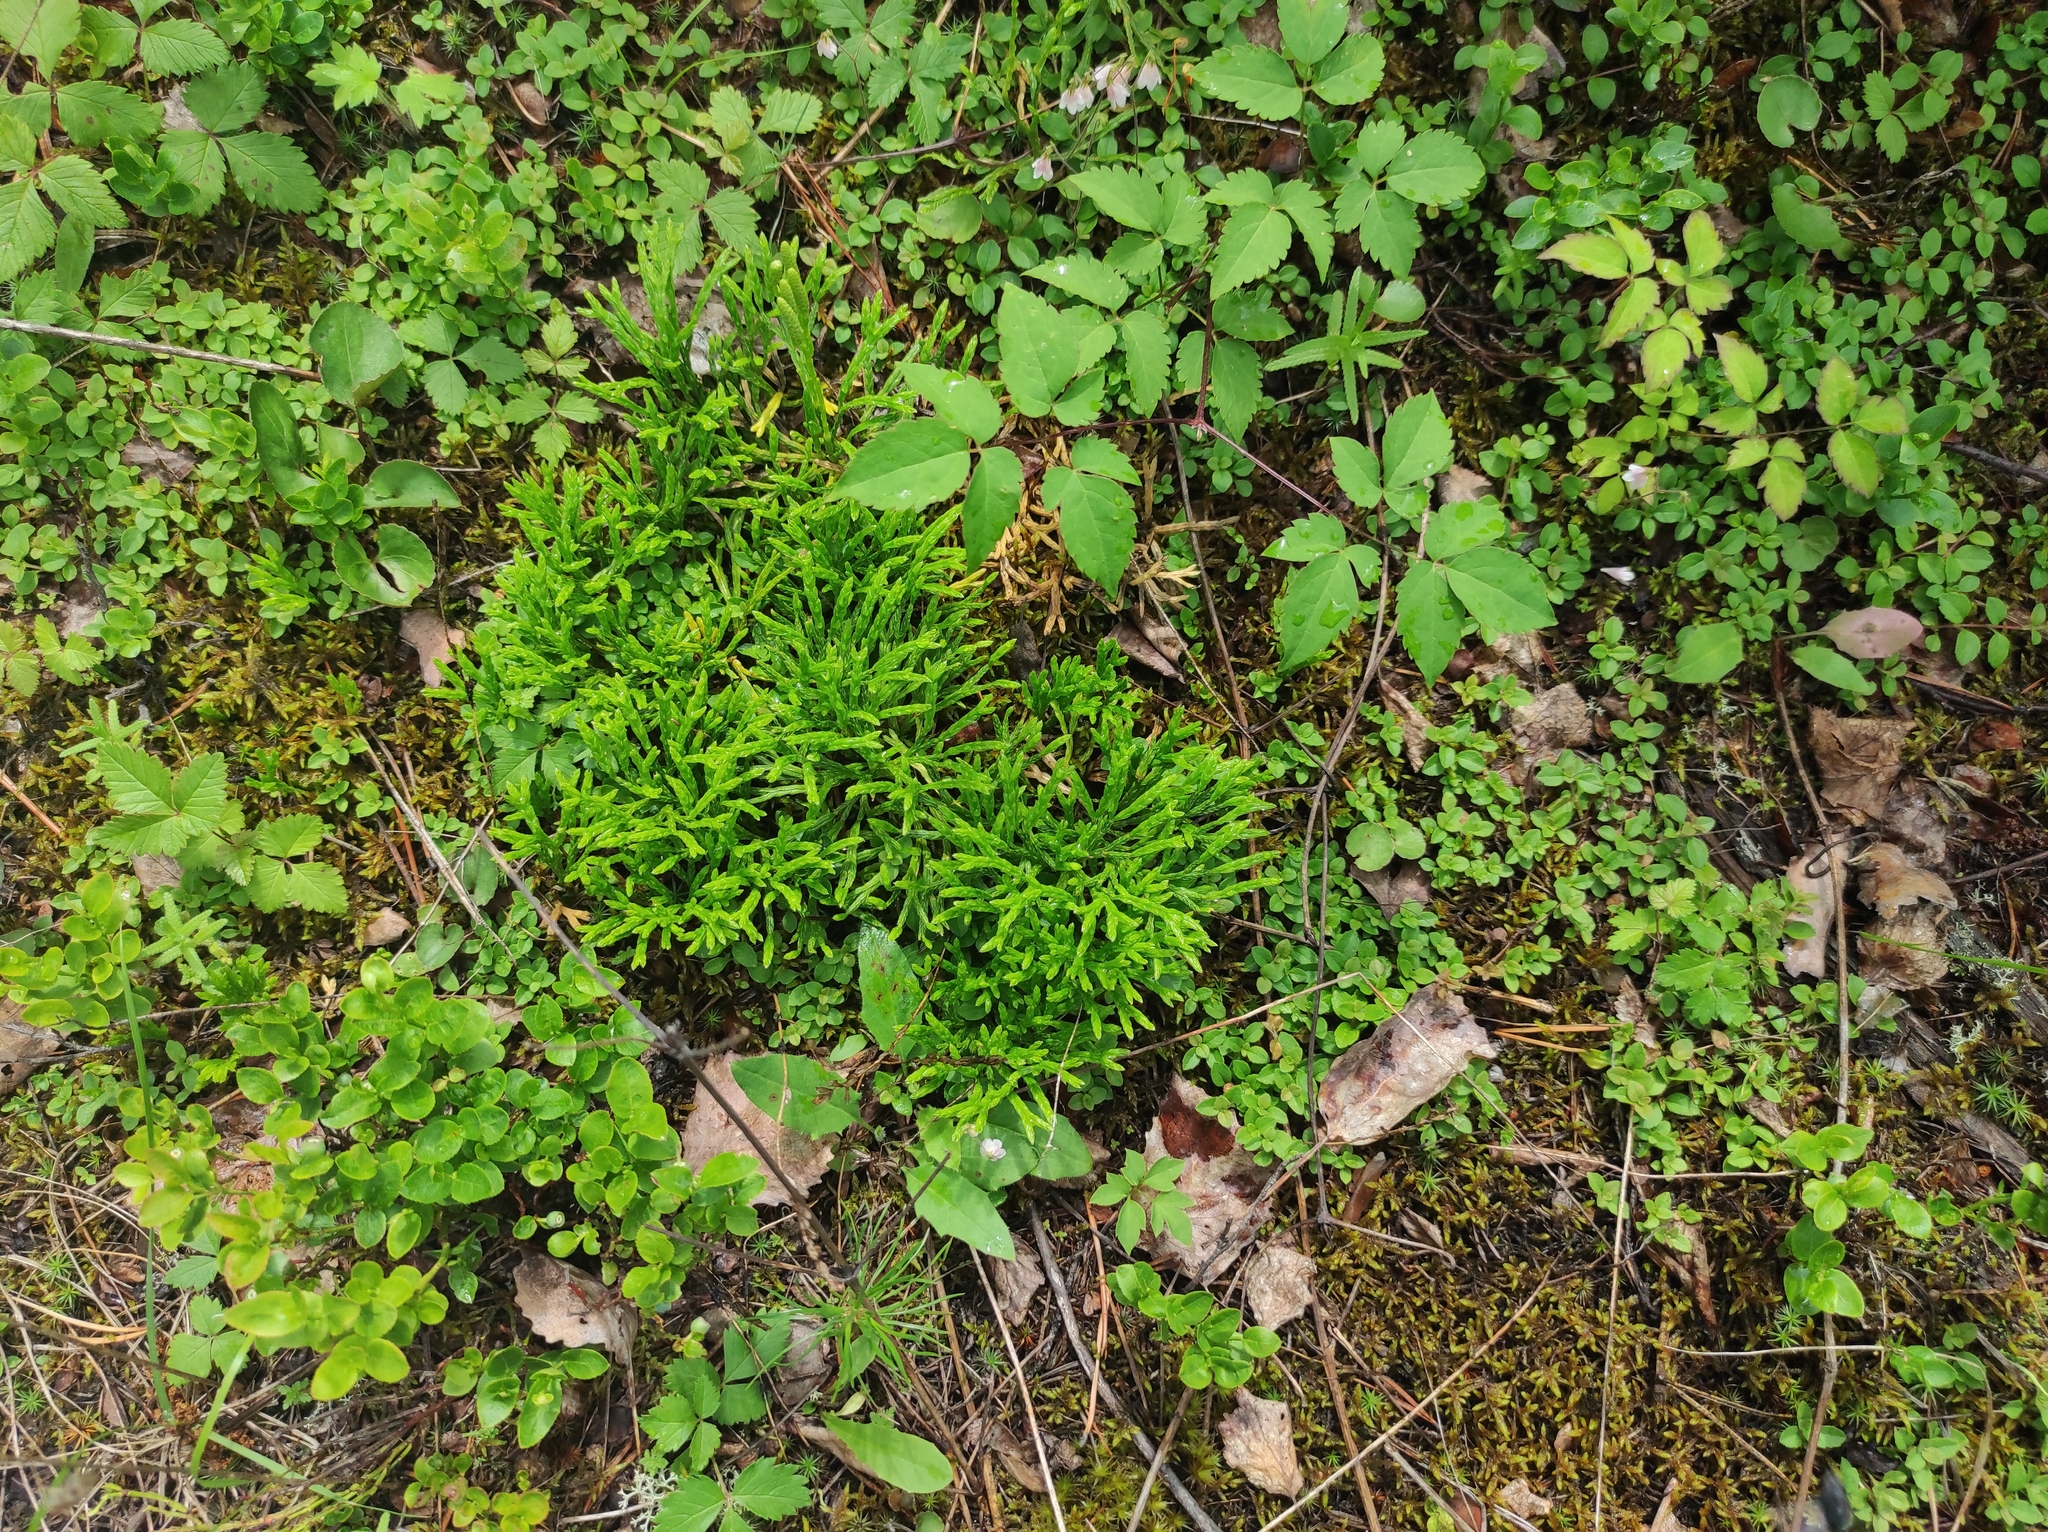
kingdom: Plantae
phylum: Tracheophyta
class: Lycopodiopsida
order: Lycopodiales
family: Lycopodiaceae
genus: Diphasiastrum
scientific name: Diphasiastrum complanatum
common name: Northern running-pine
